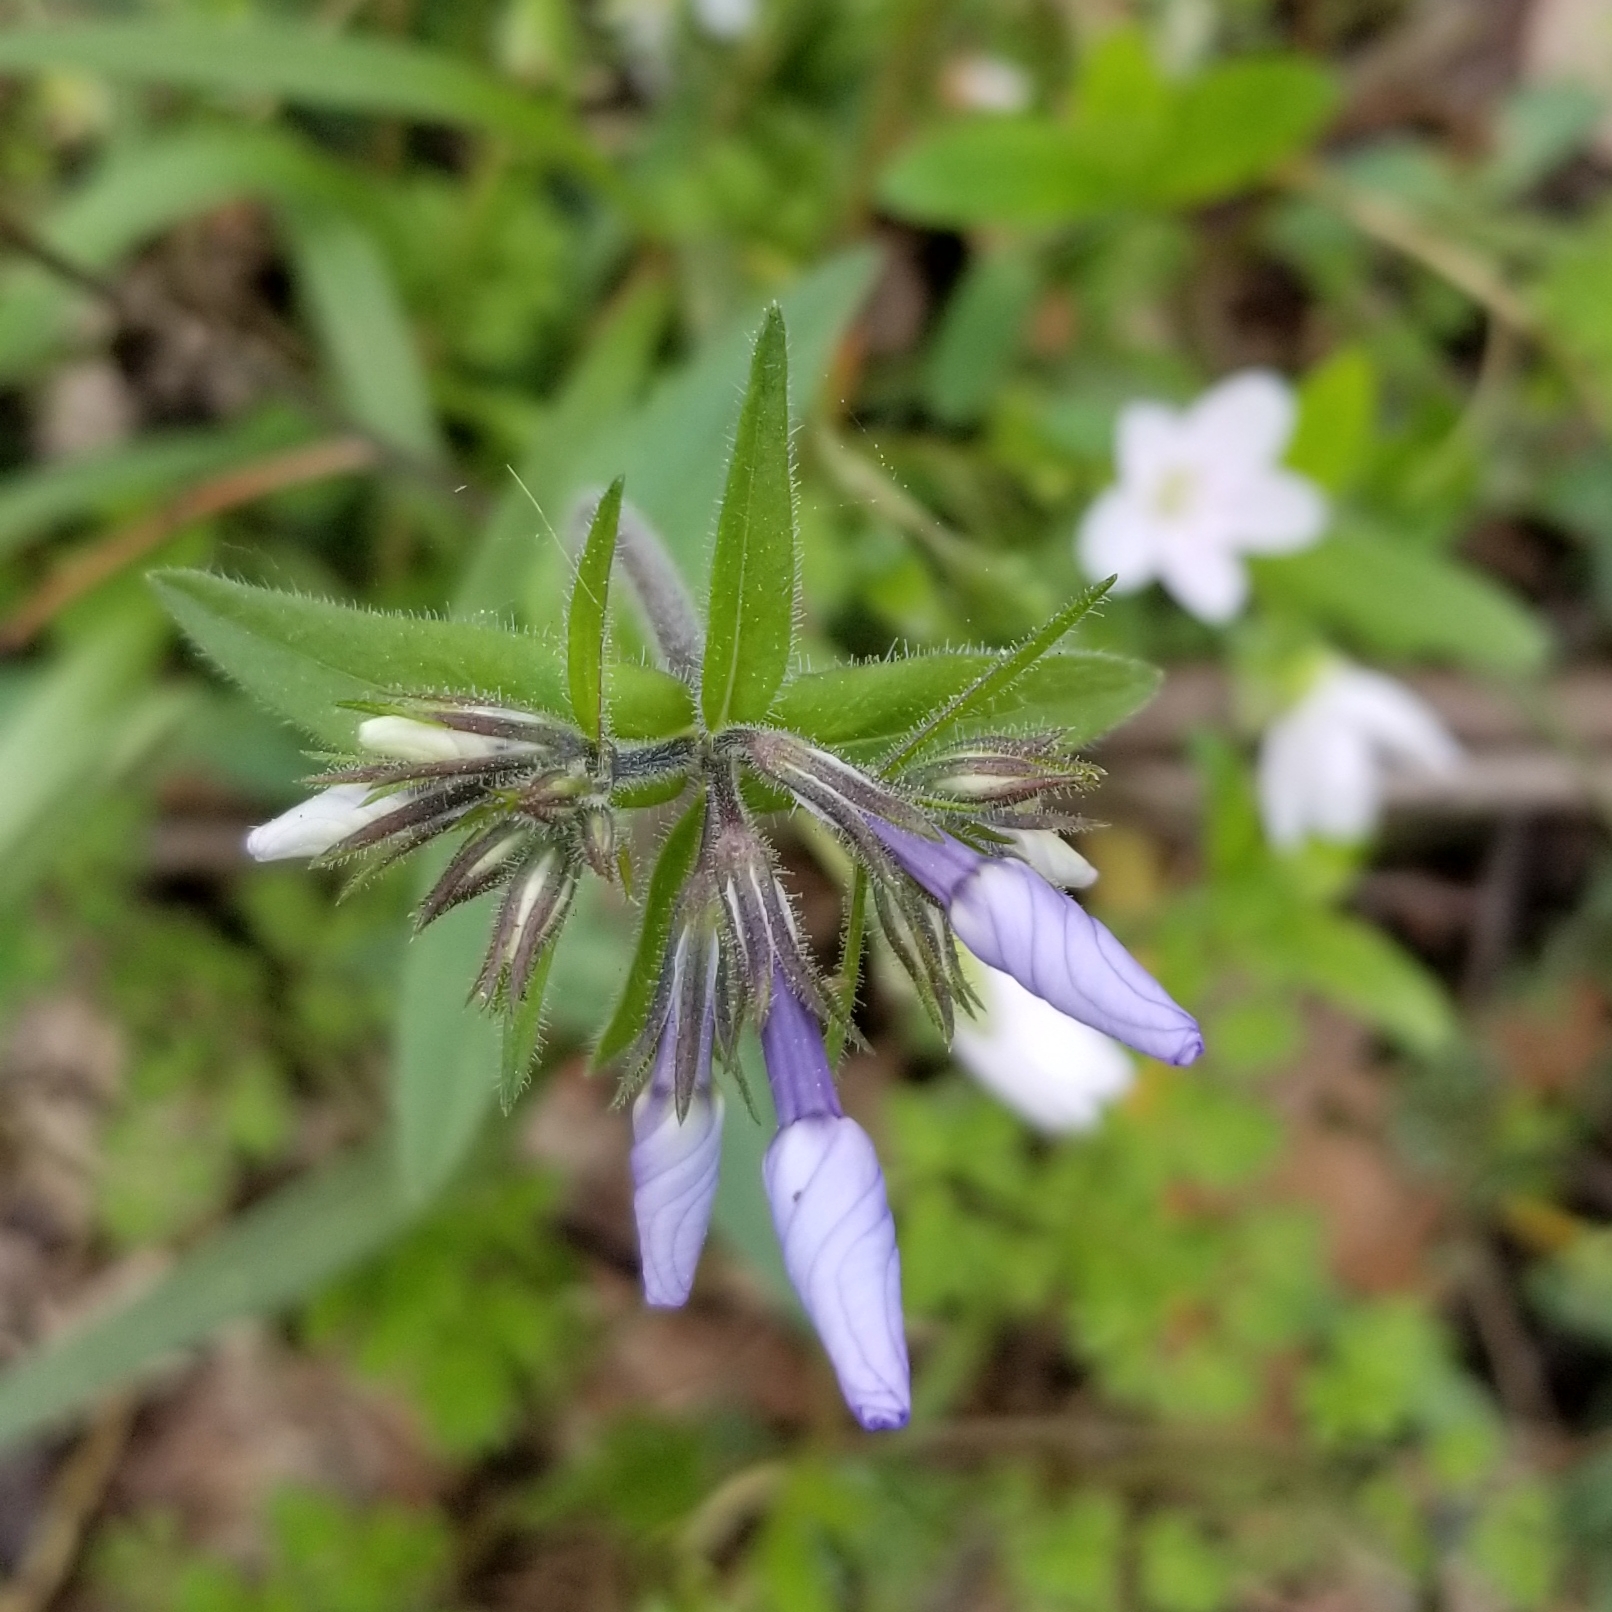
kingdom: Plantae
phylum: Tracheophyta
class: Magnoliopsida
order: Ericales
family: Polemoniaceae
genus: Phlox
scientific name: Phlox divaricata
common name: Blue phlox
